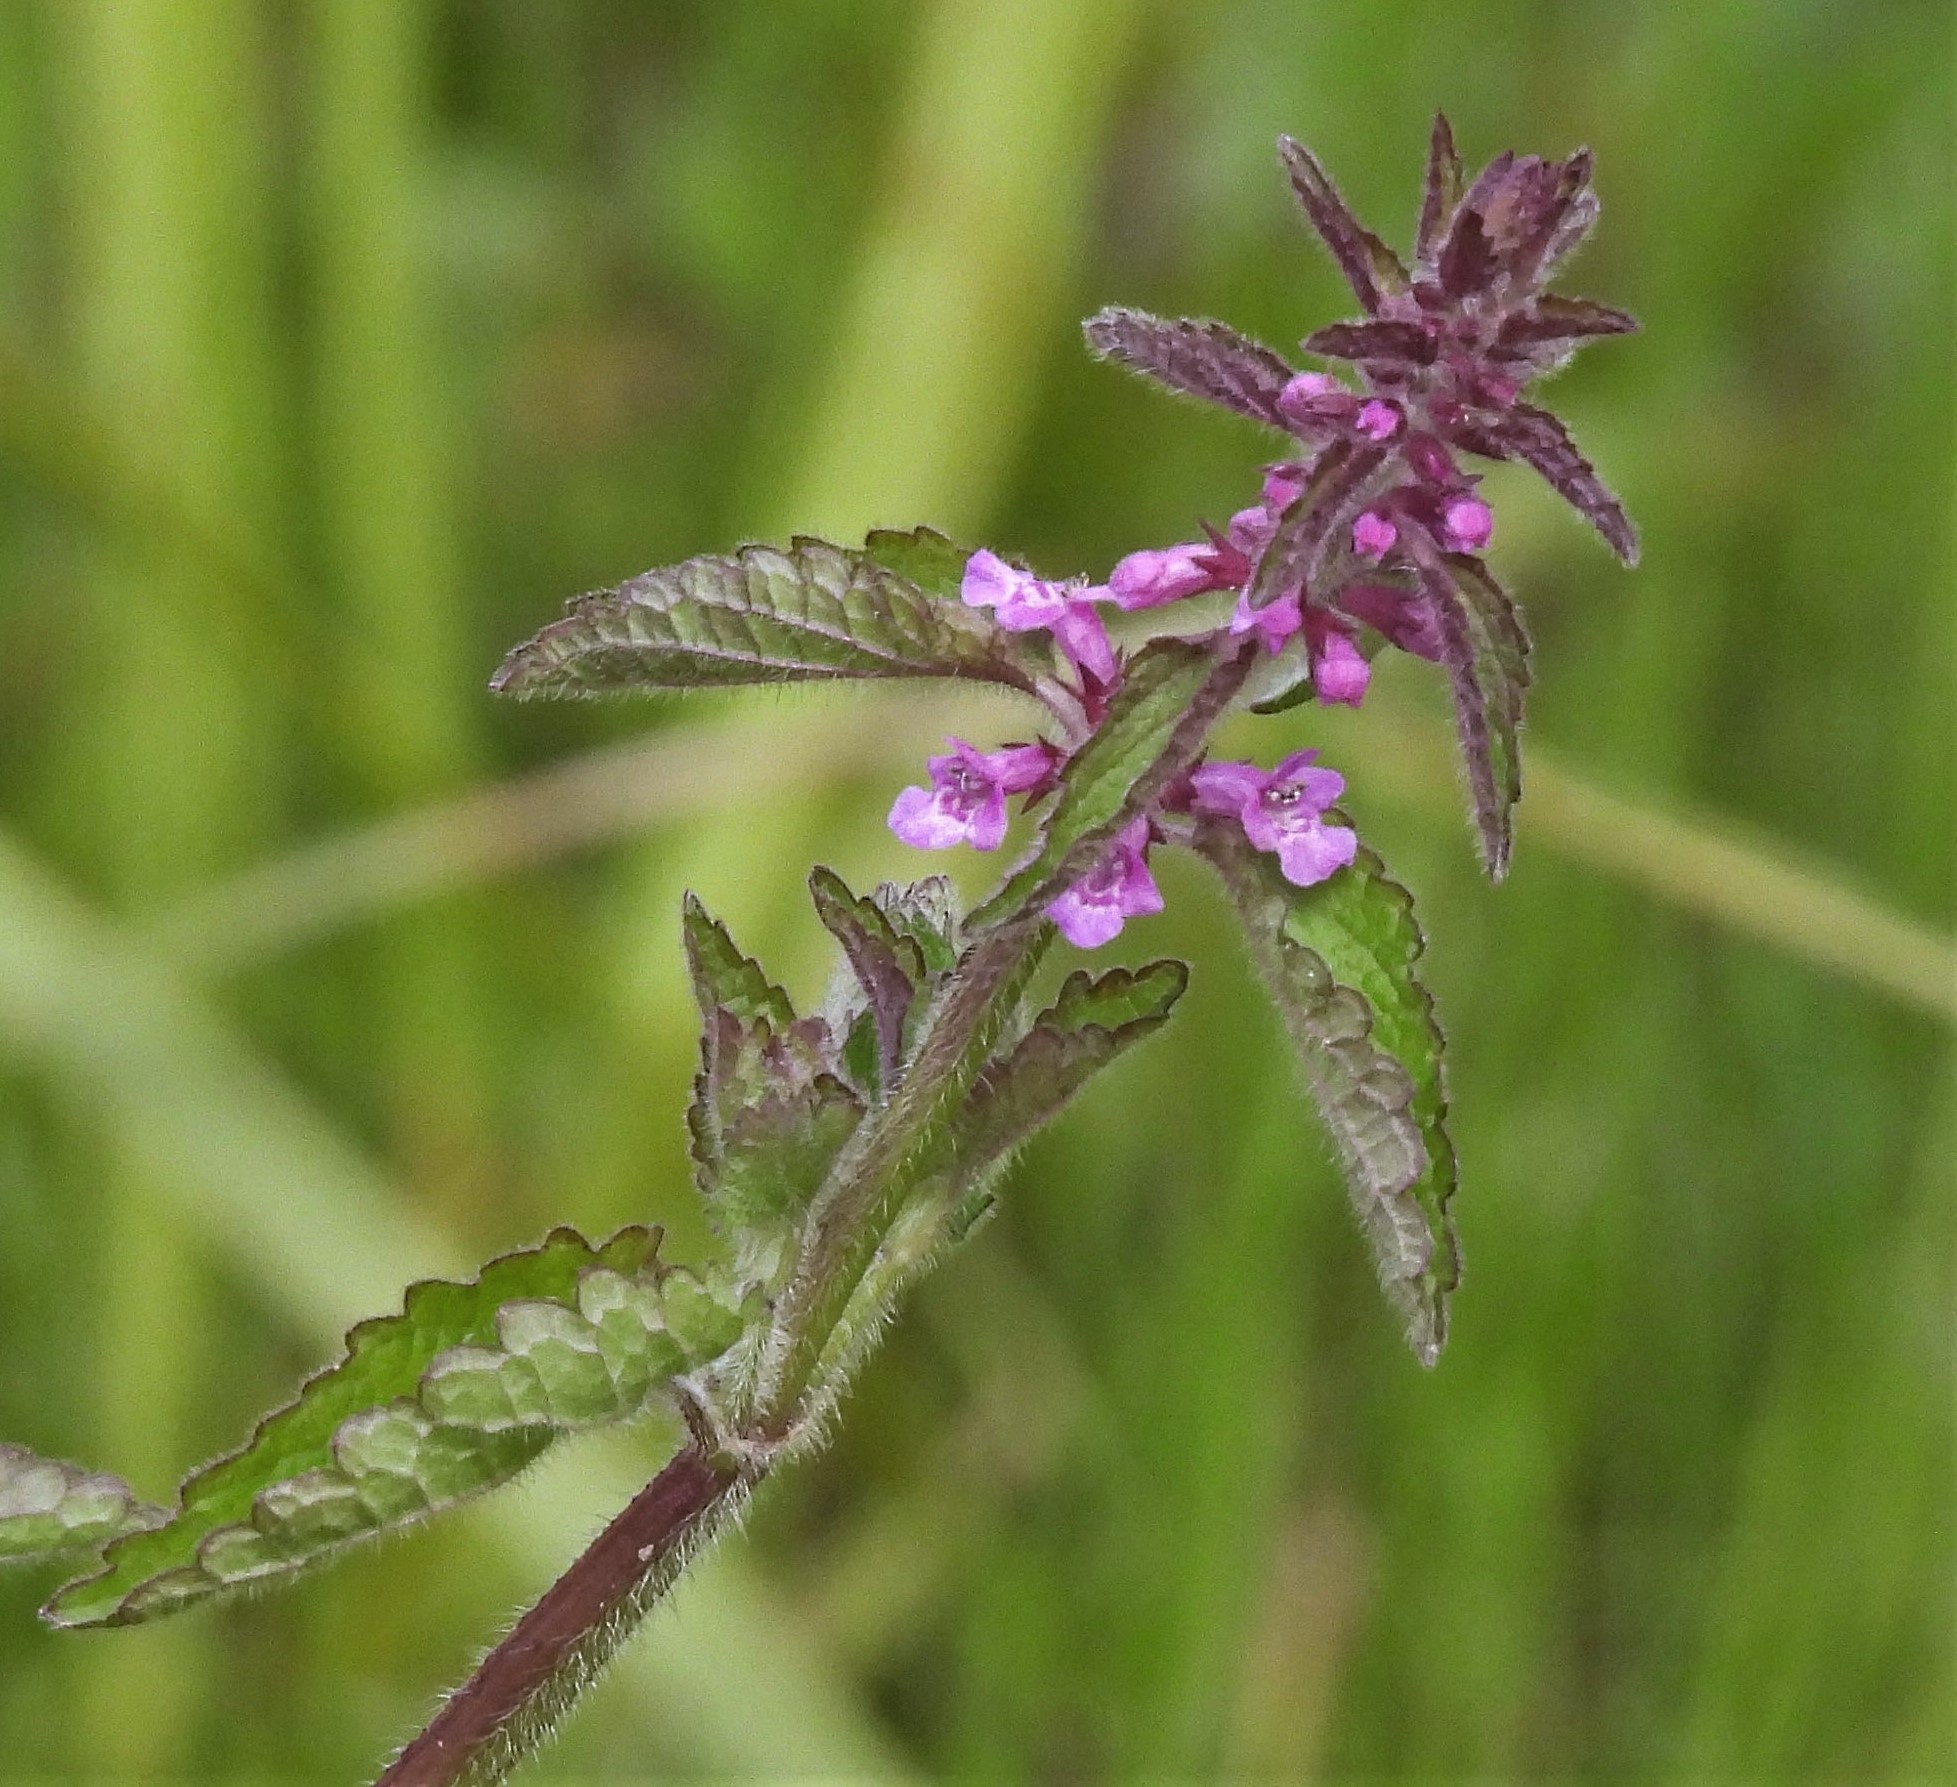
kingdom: Plantae
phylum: Tracheophyta
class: Magnoliopsida
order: Lamiales
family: Lamiaceae
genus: Stachys
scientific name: Stachys gilliesii
